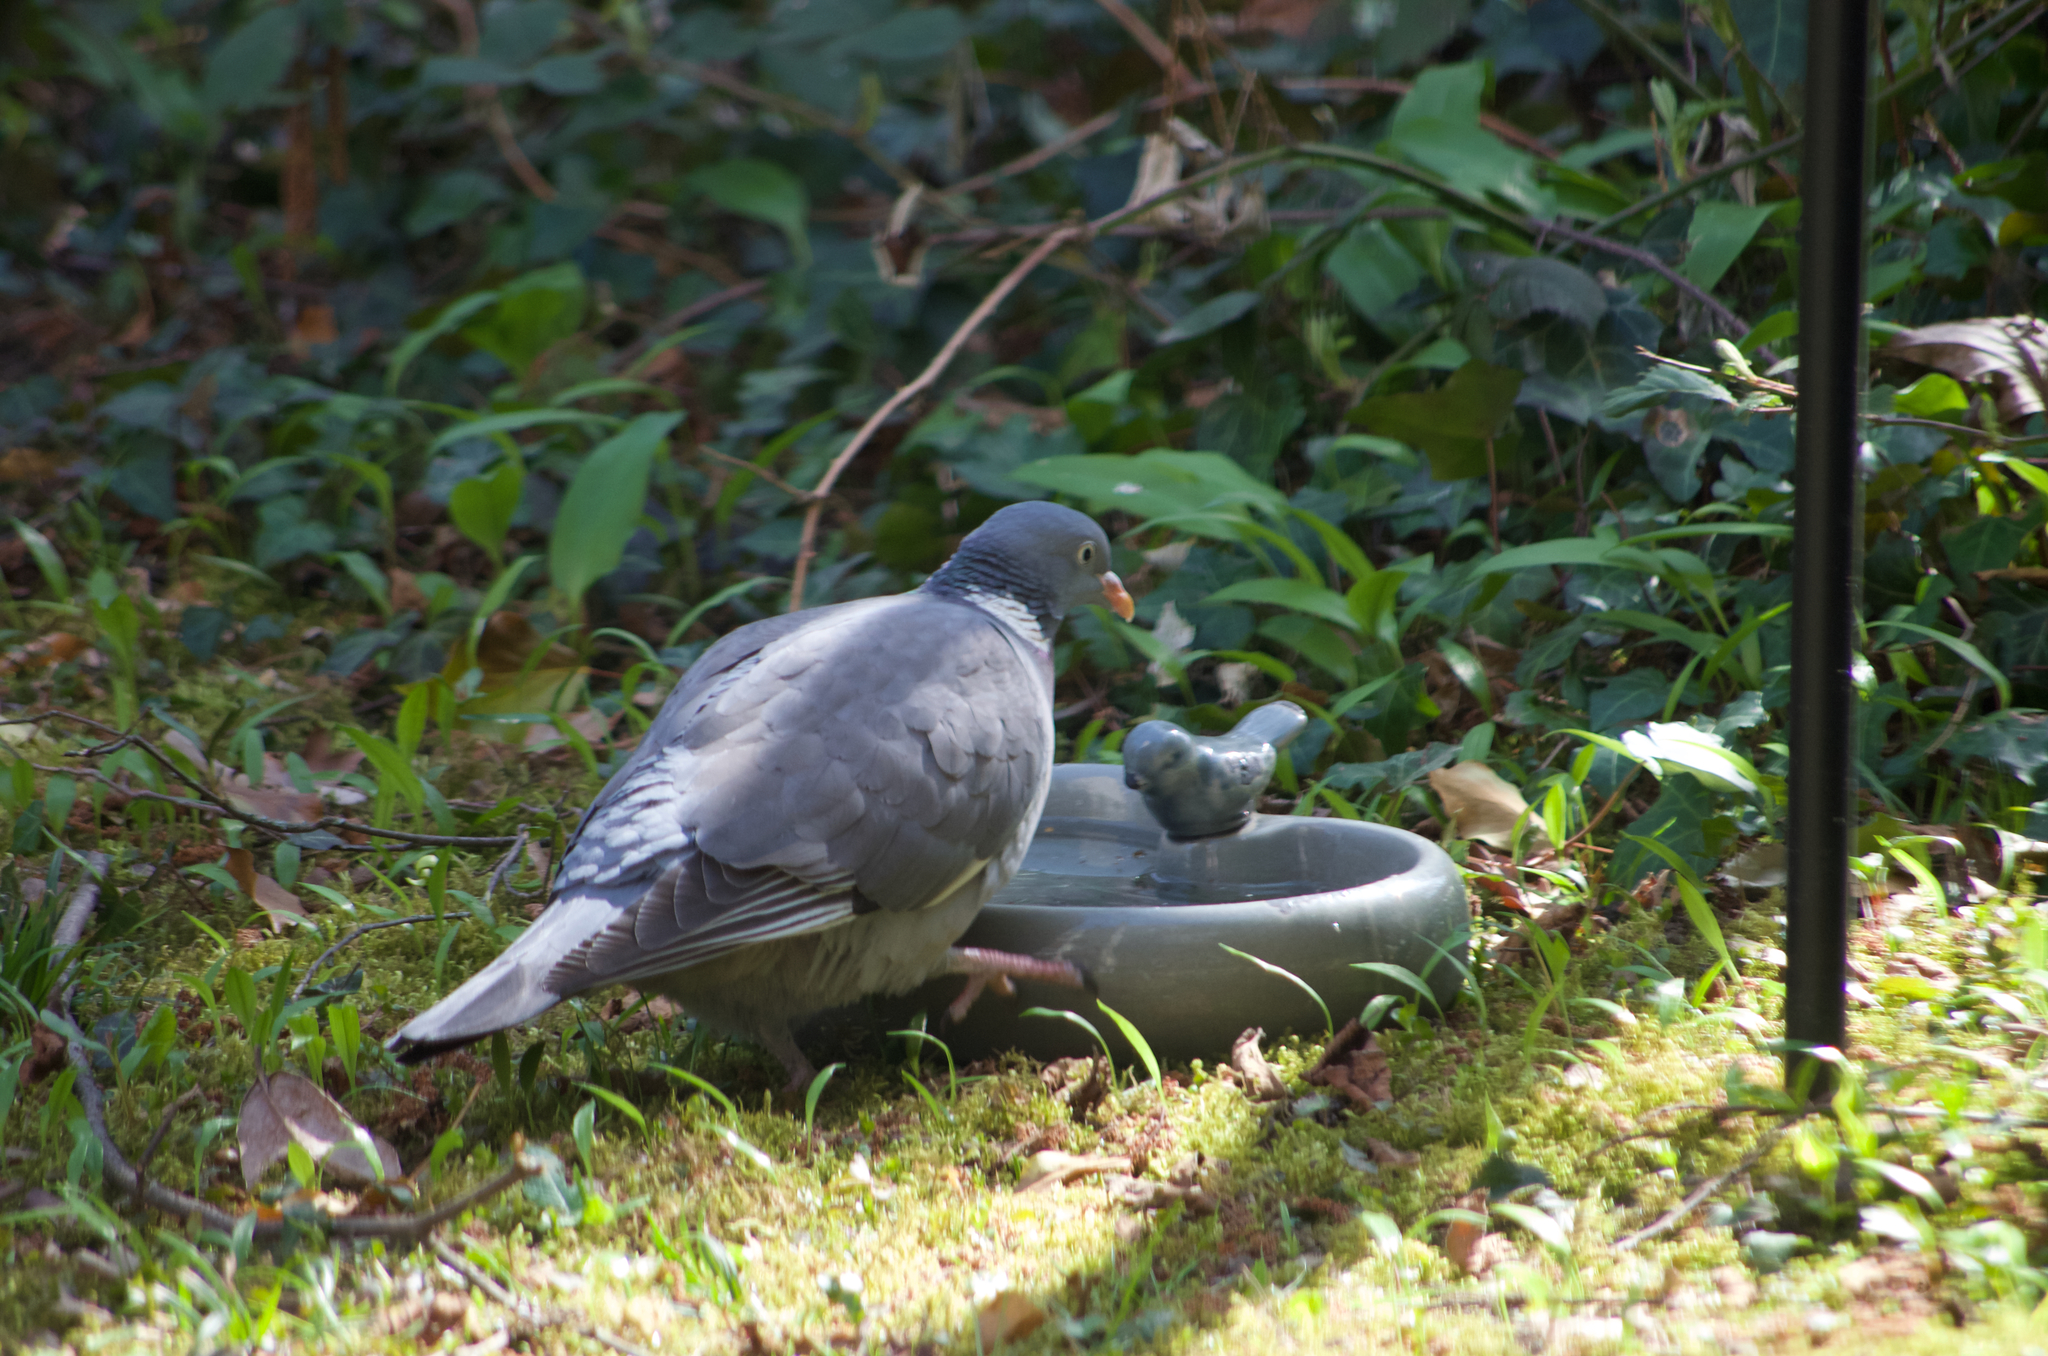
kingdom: Animalia
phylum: Chordata
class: Aves
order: Columbiformes
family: Columbidae
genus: Columba
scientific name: Columba palumbus
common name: Common wood pigeon
